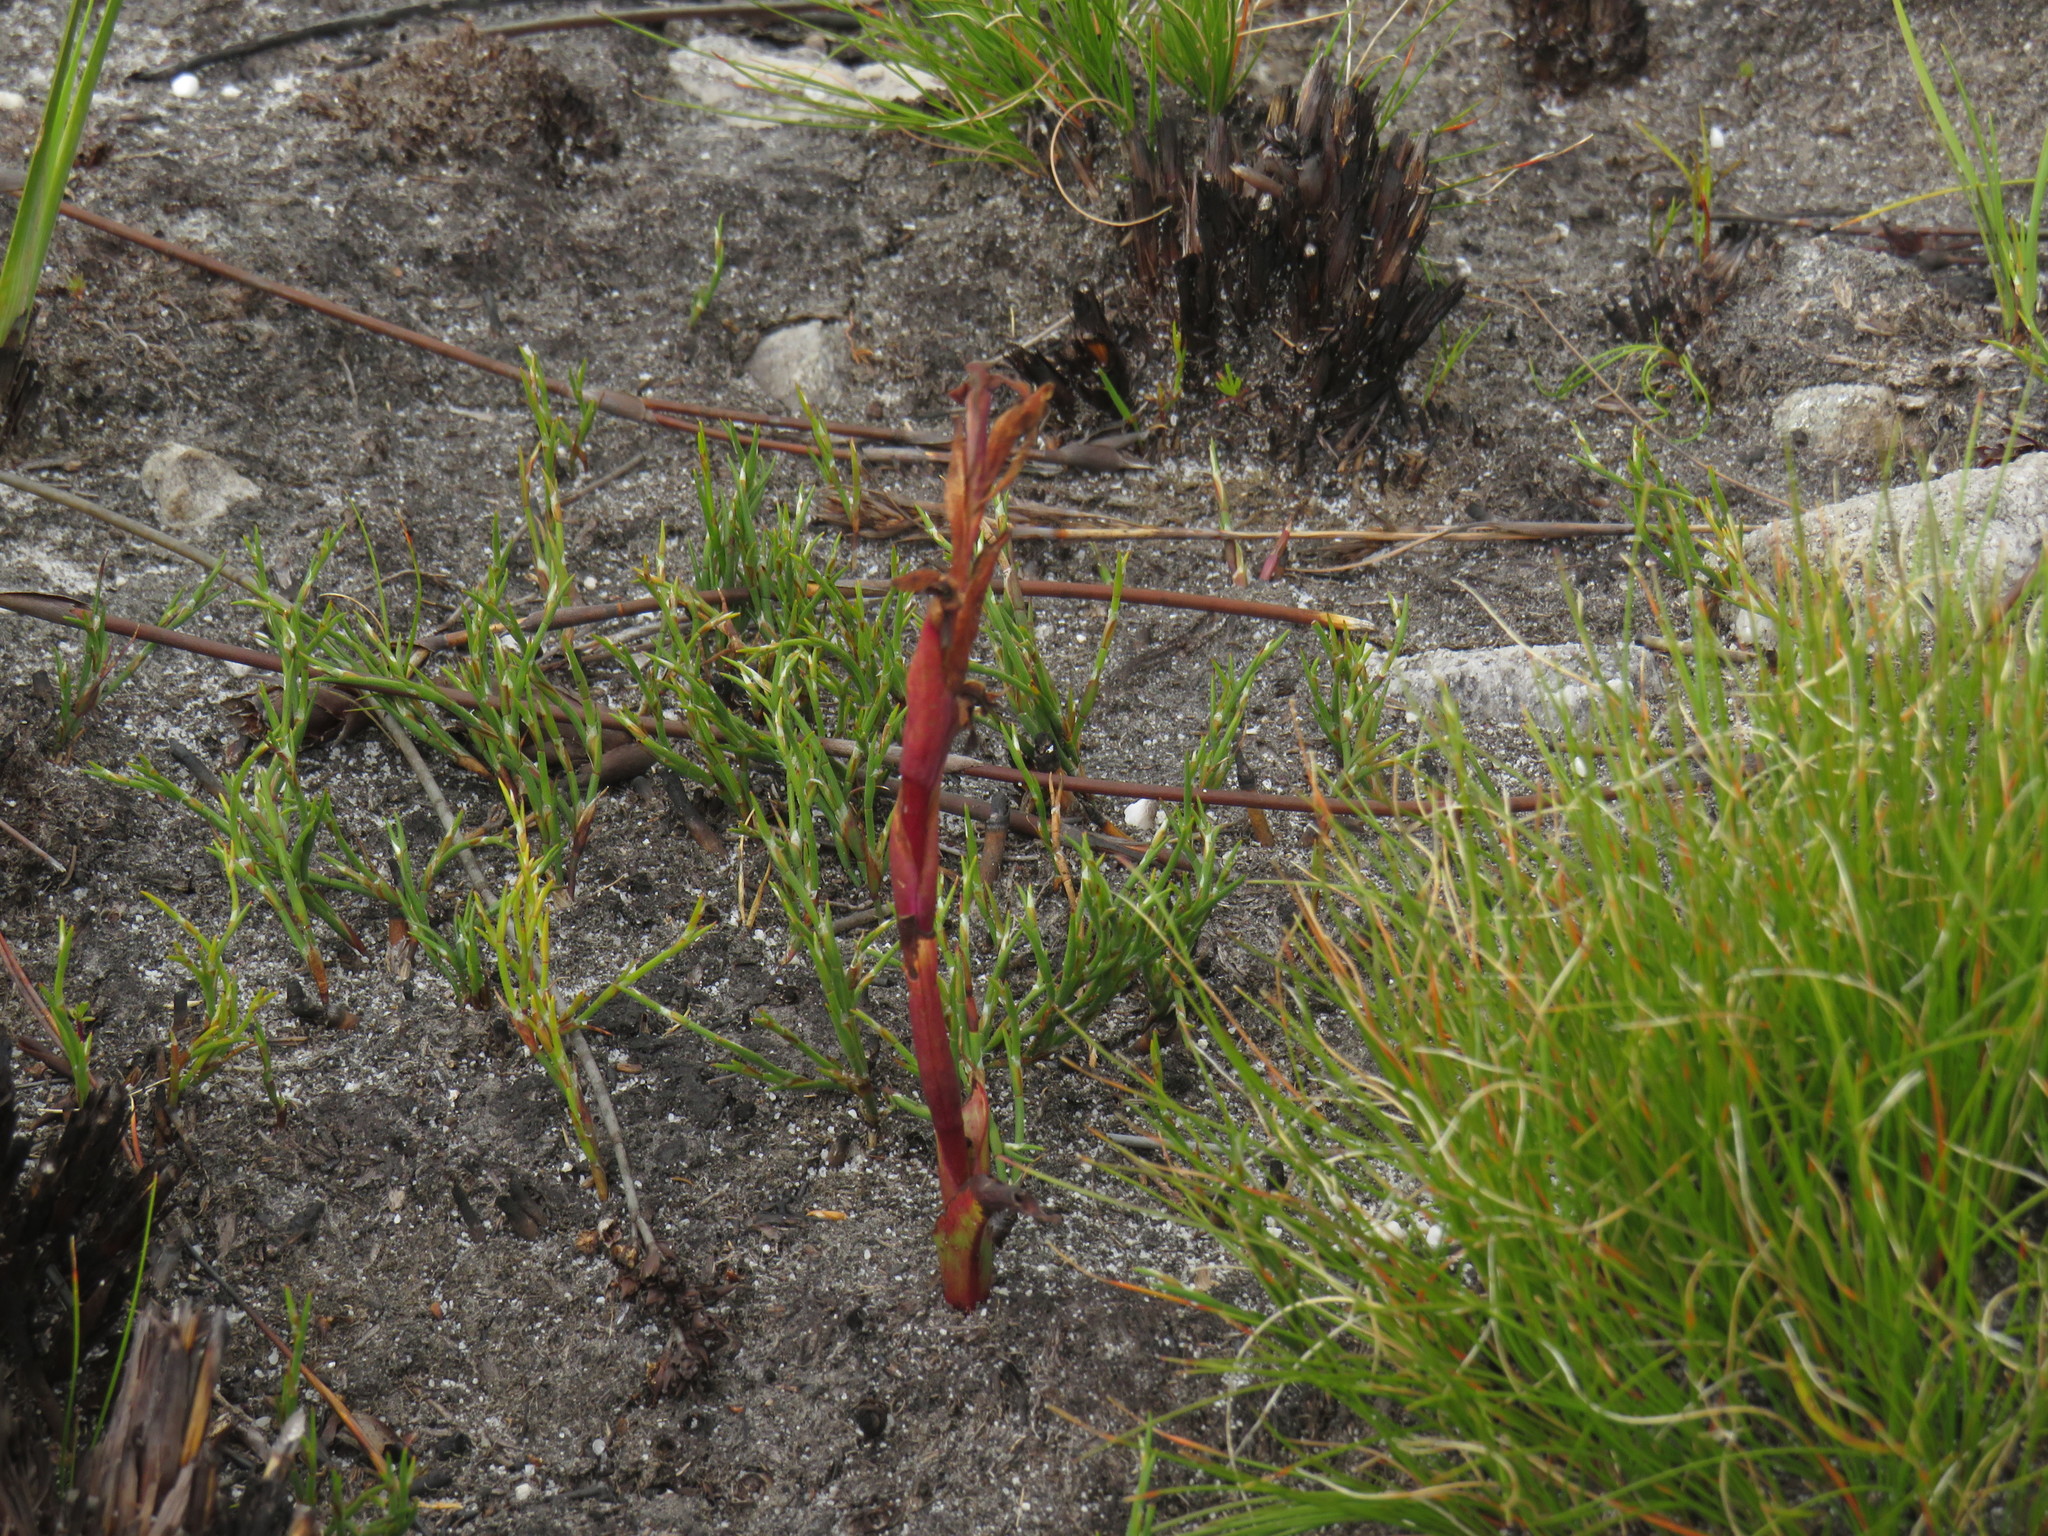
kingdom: Plantae
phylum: Tracheophyta
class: Liliopsida
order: Asparagales
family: Orchidaceae
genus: Disa
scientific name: Disa ophrydea
